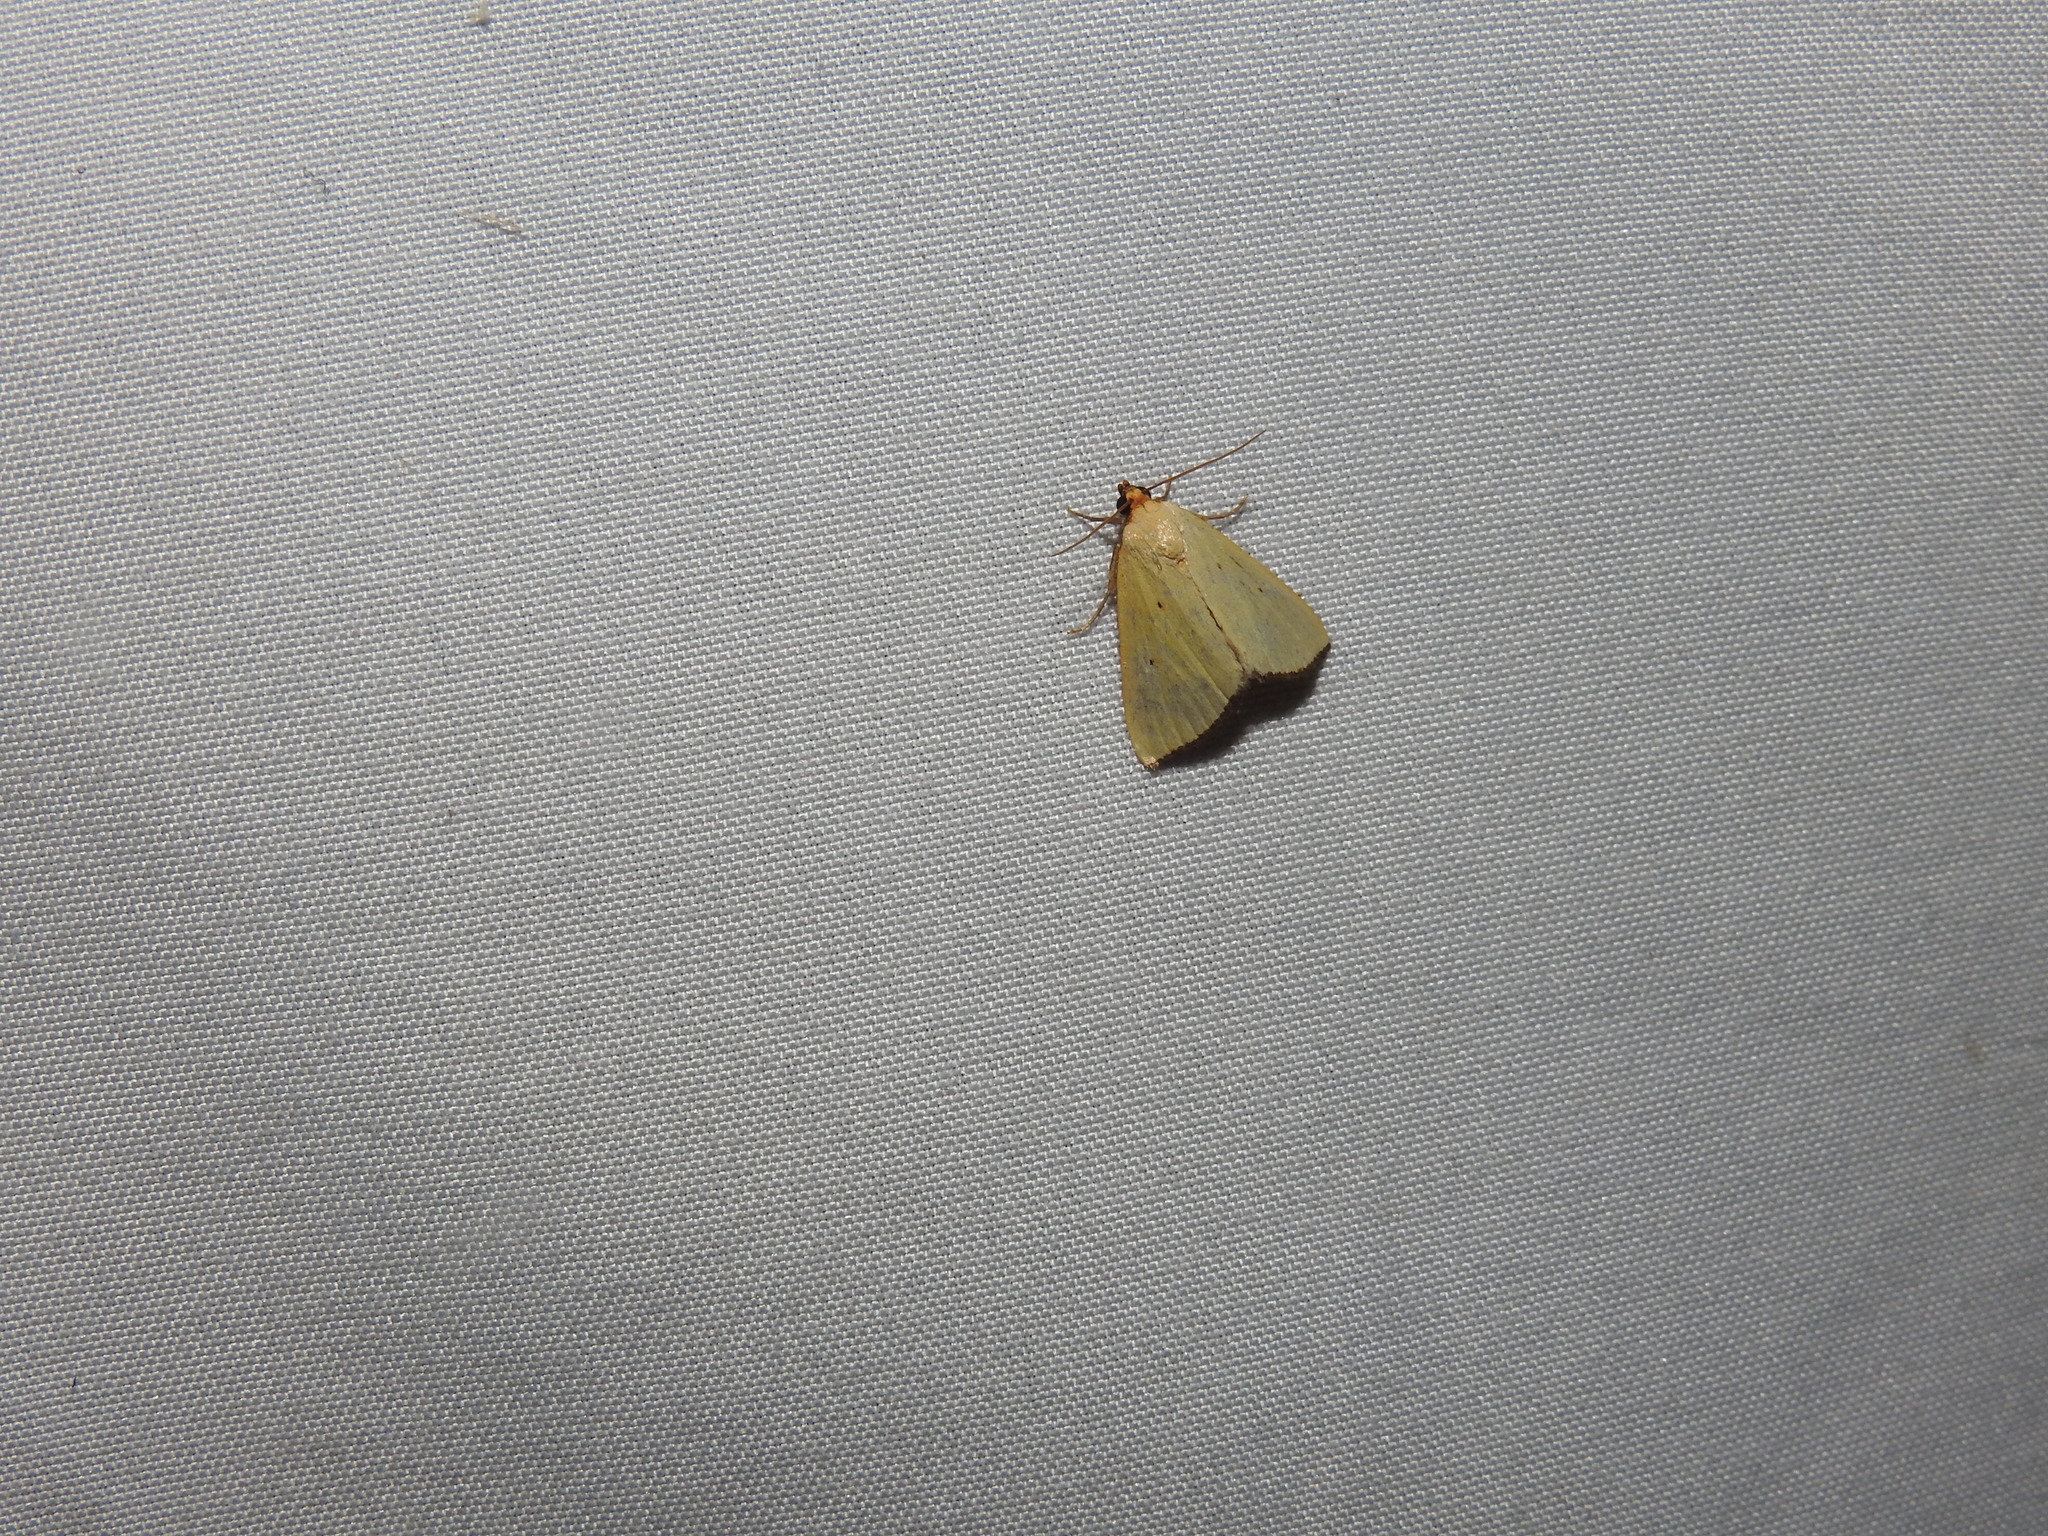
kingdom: Animalia
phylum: Arthropoda
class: Insecta
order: Lepidoptera
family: Noctuidae
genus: Marimatha
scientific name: Marimatha nigrofimbria
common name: Black-bordered lemon moth
